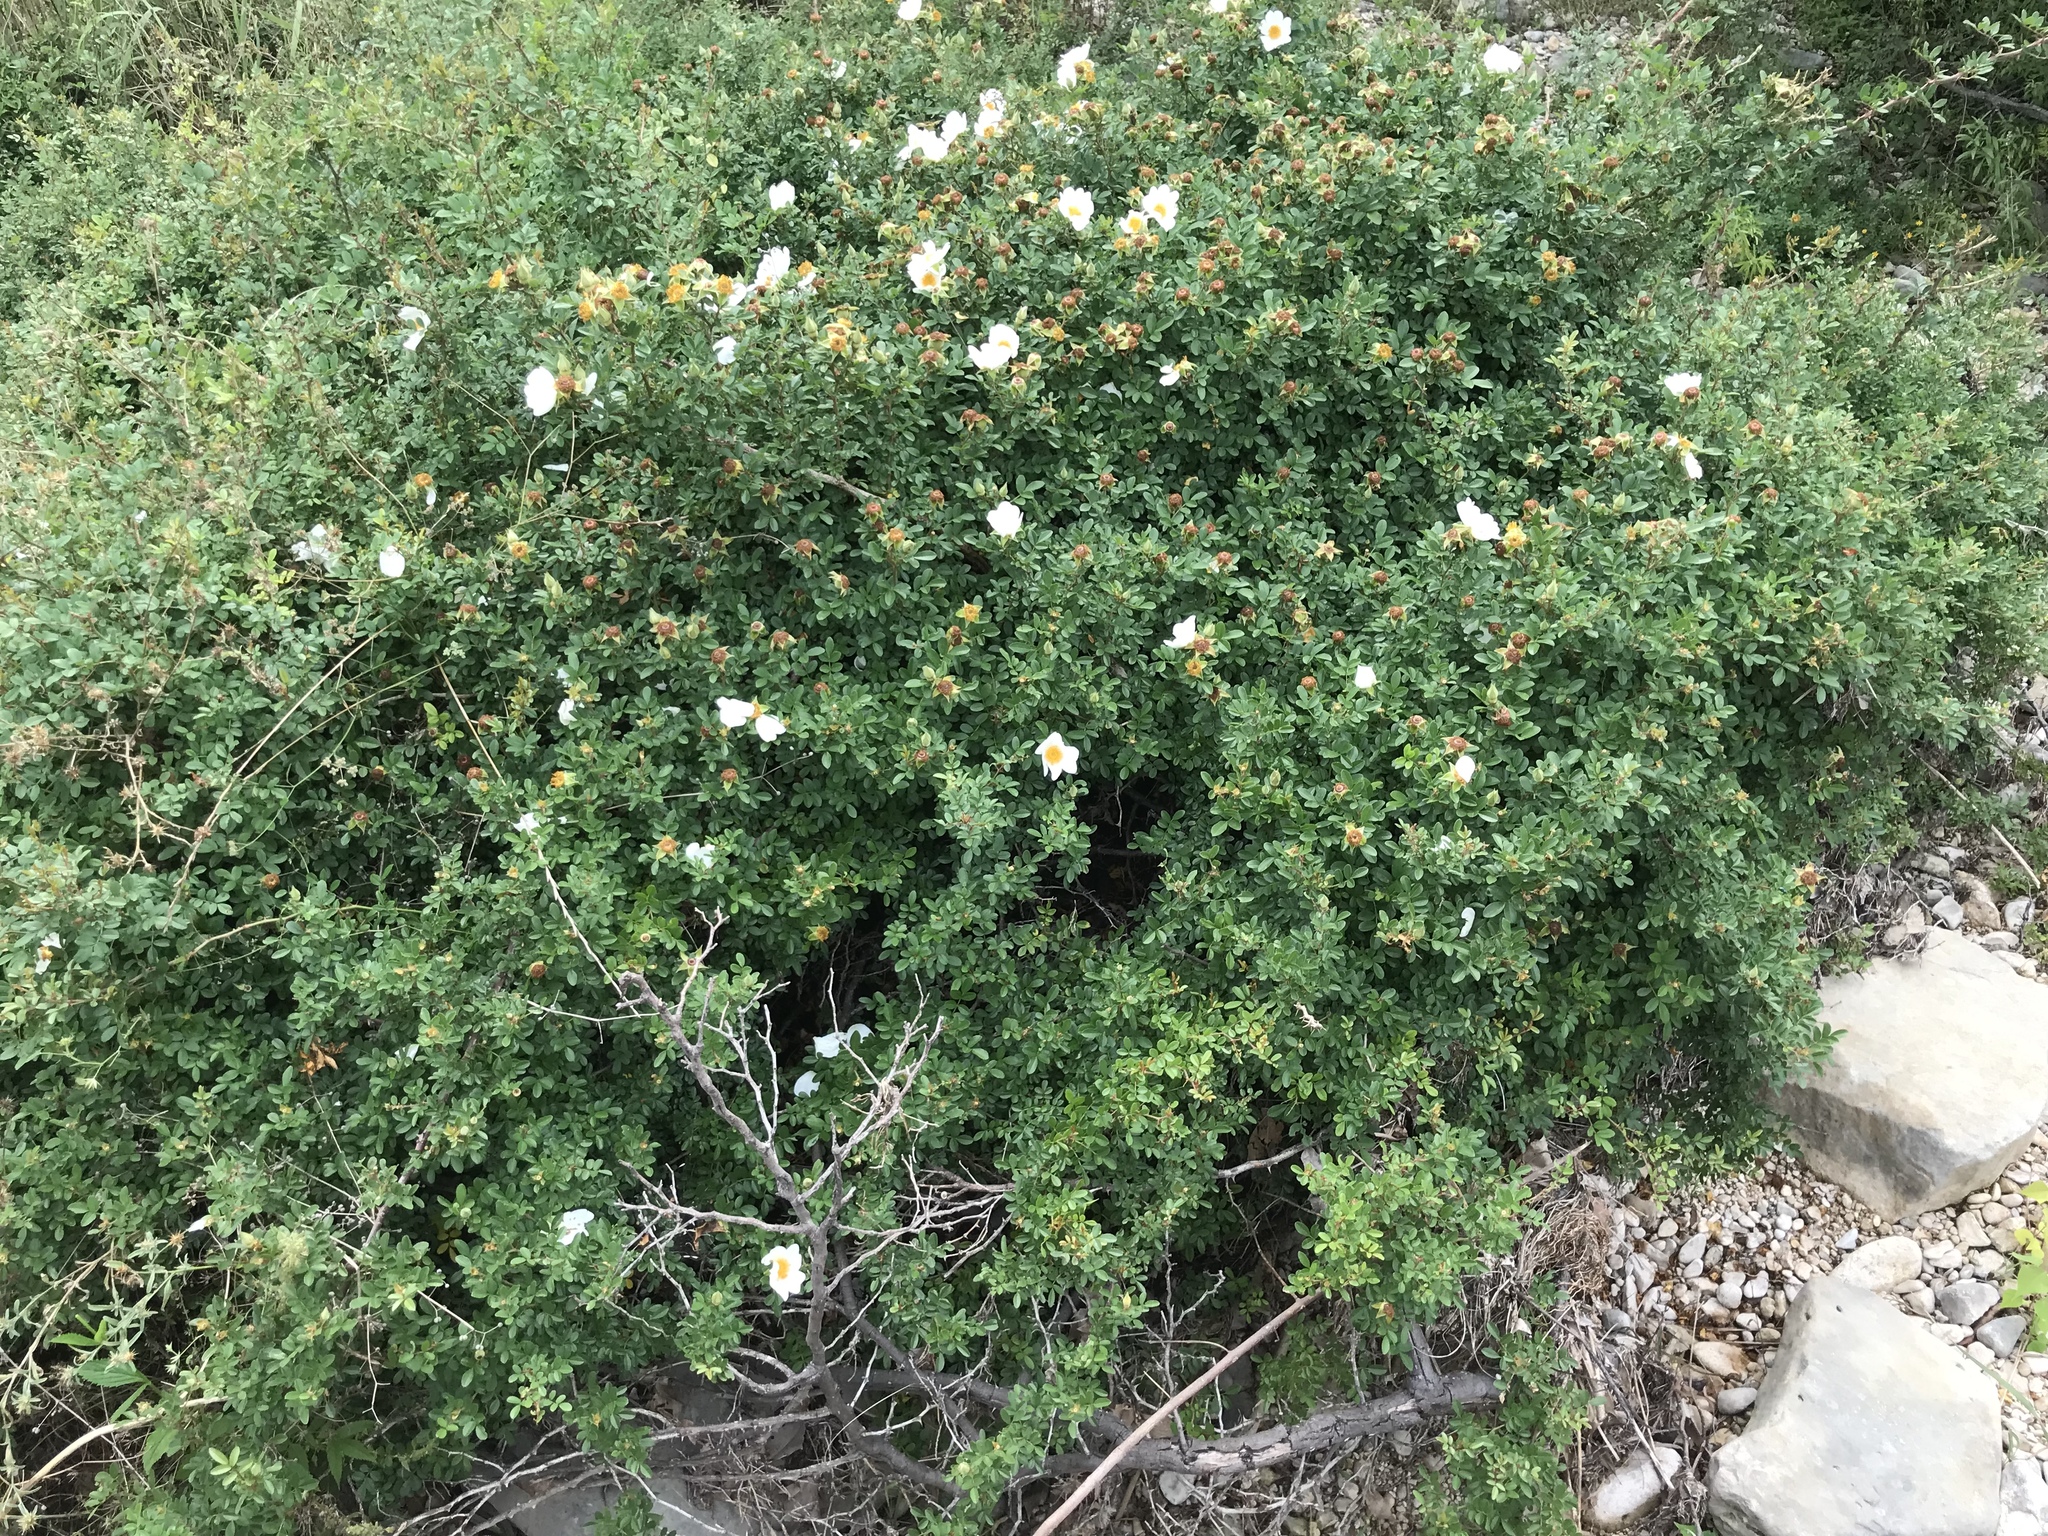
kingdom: Plantae
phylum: Tracheophyta
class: Magnoliopsida
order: Rosales
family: Rosaceae
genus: Rosa
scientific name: Rosa bracteata
